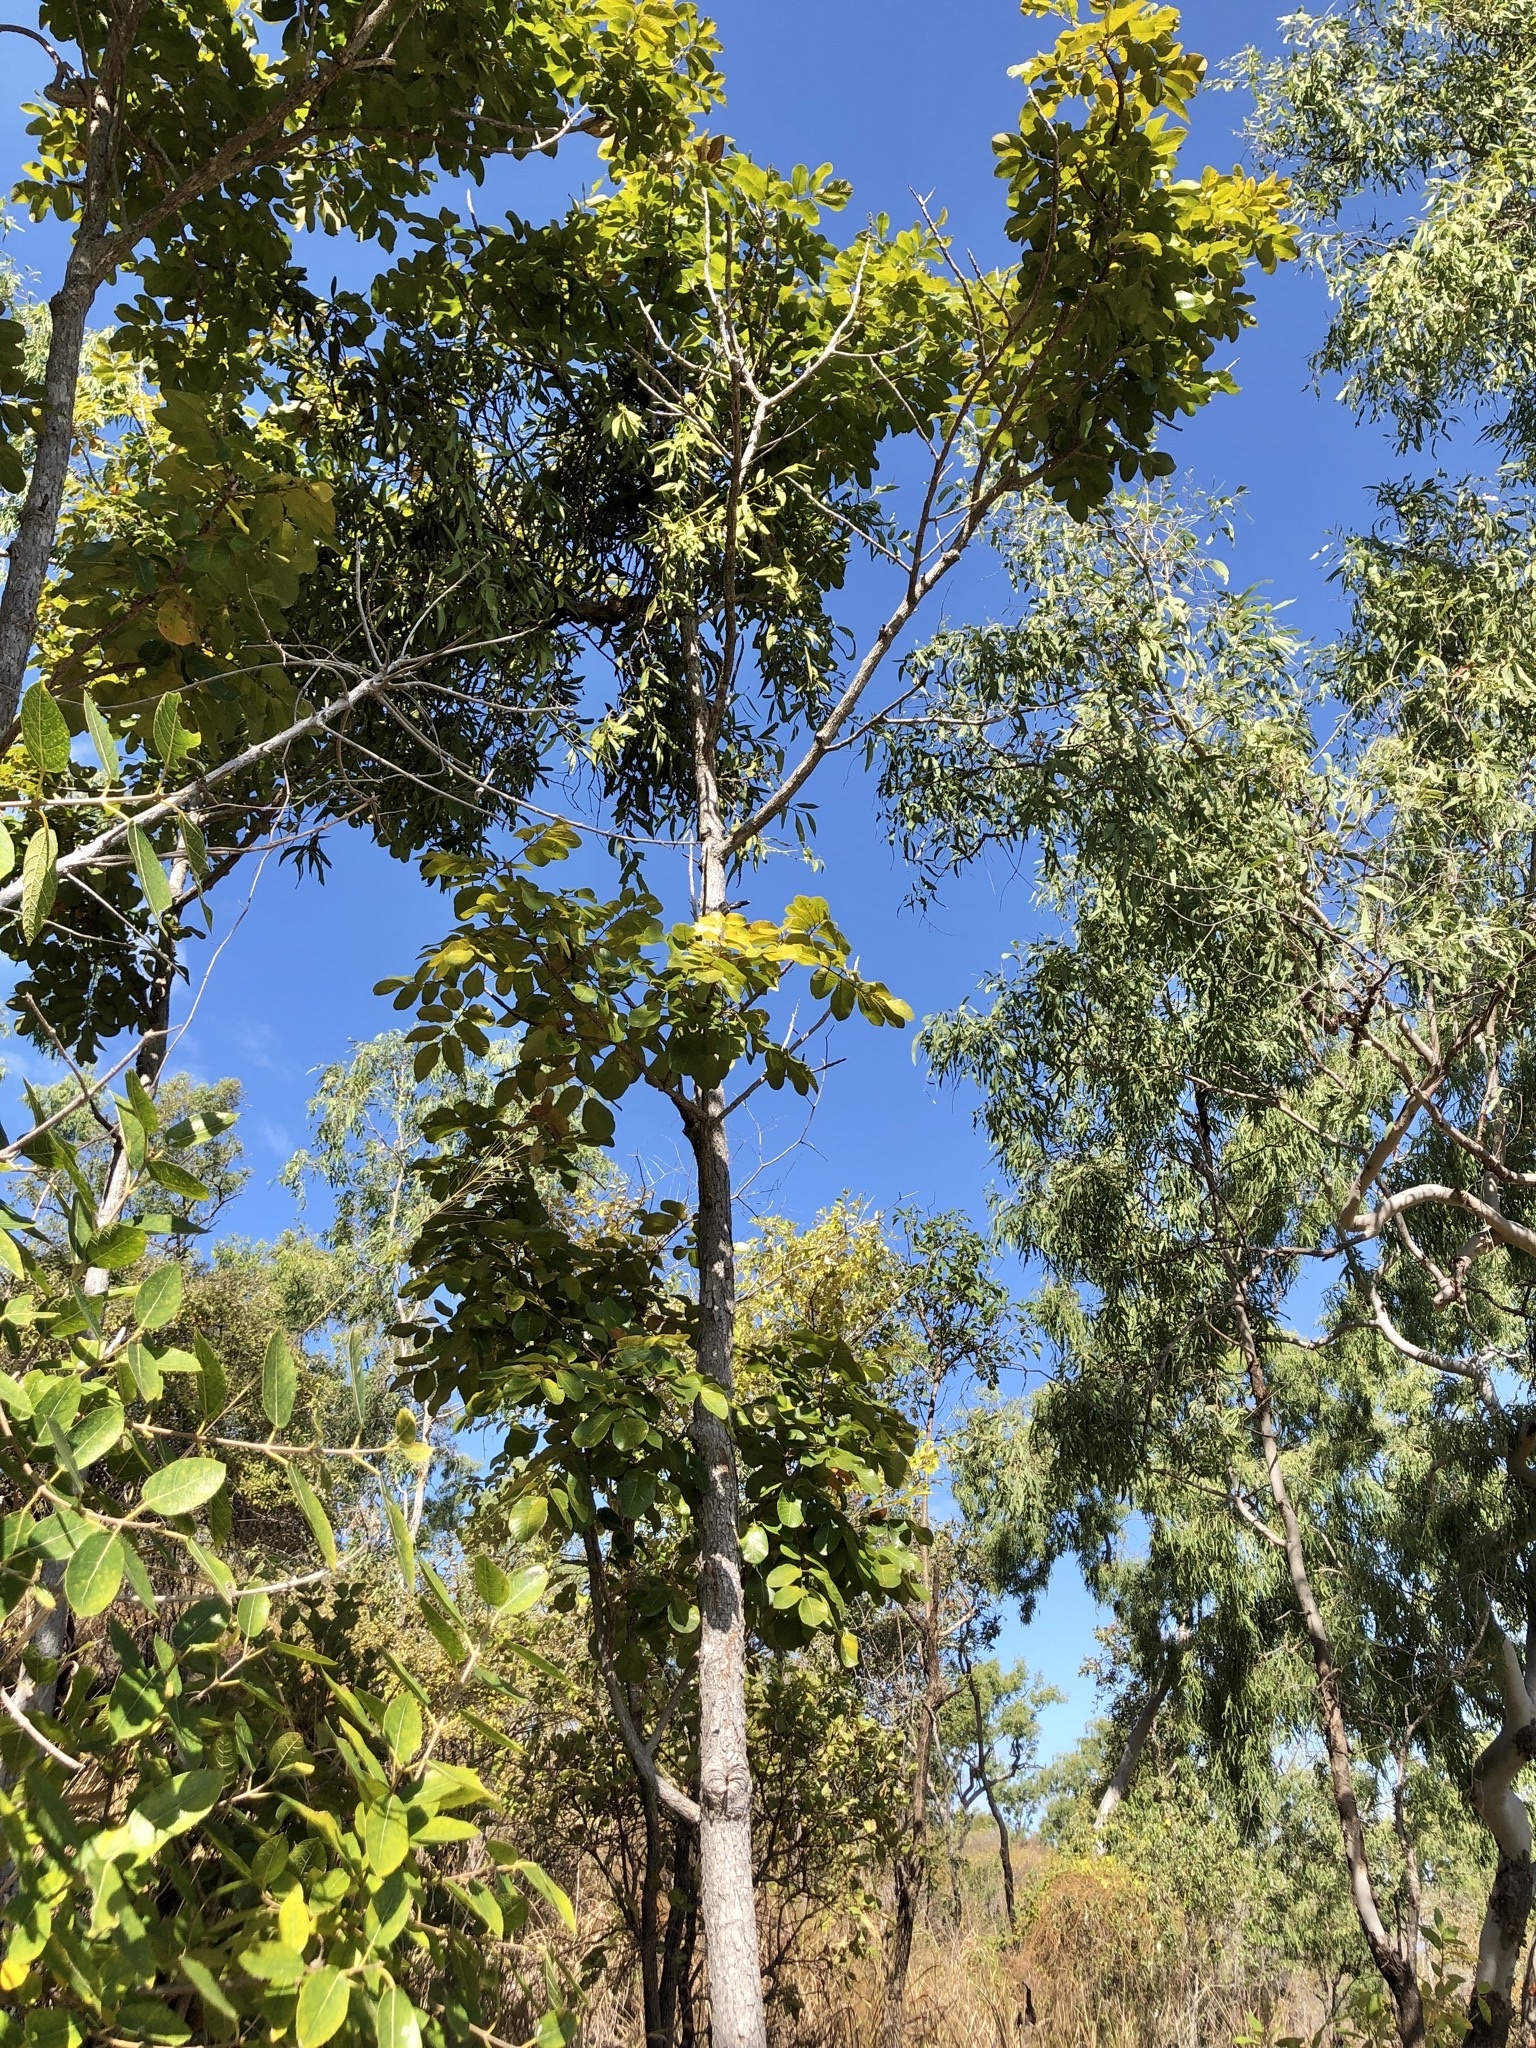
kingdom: Plantae
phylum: Tracheophyta
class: Magnoliopsida
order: Sapindales
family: Burseraceae
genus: Canarium
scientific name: Canarium australianum
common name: Island white-beech
